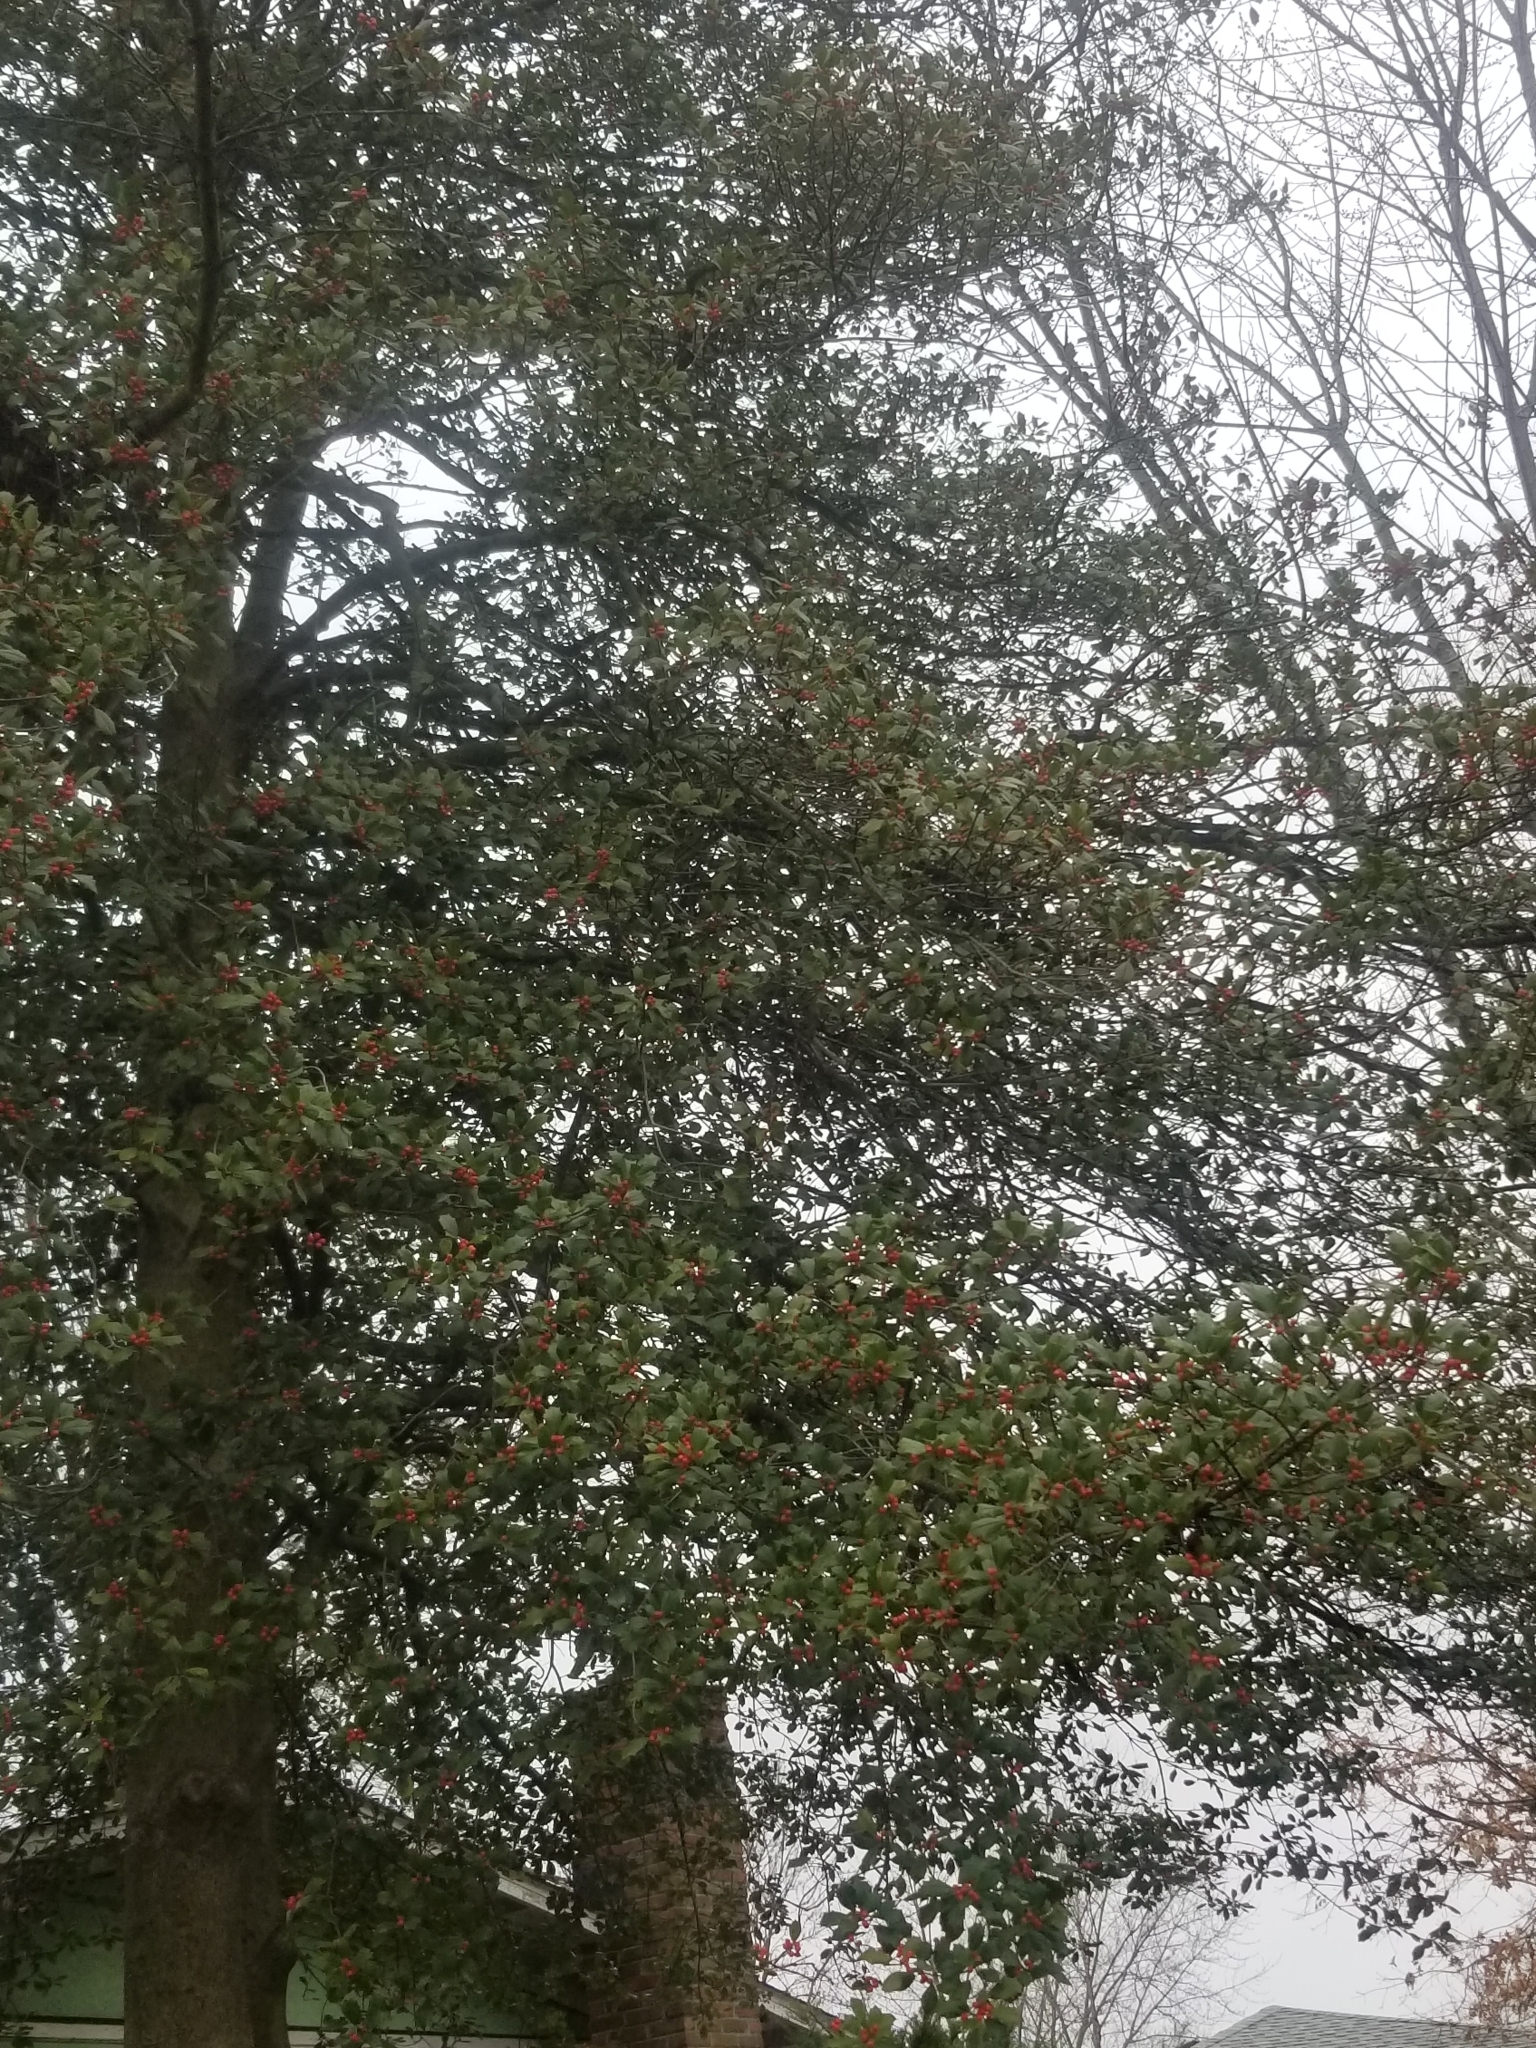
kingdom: Plantae
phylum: Tracheophyta
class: Magnoliopsida
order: Aquifoliales
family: Aquifoliaceae
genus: Ilex
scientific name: Ilex opaca
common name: American holly
